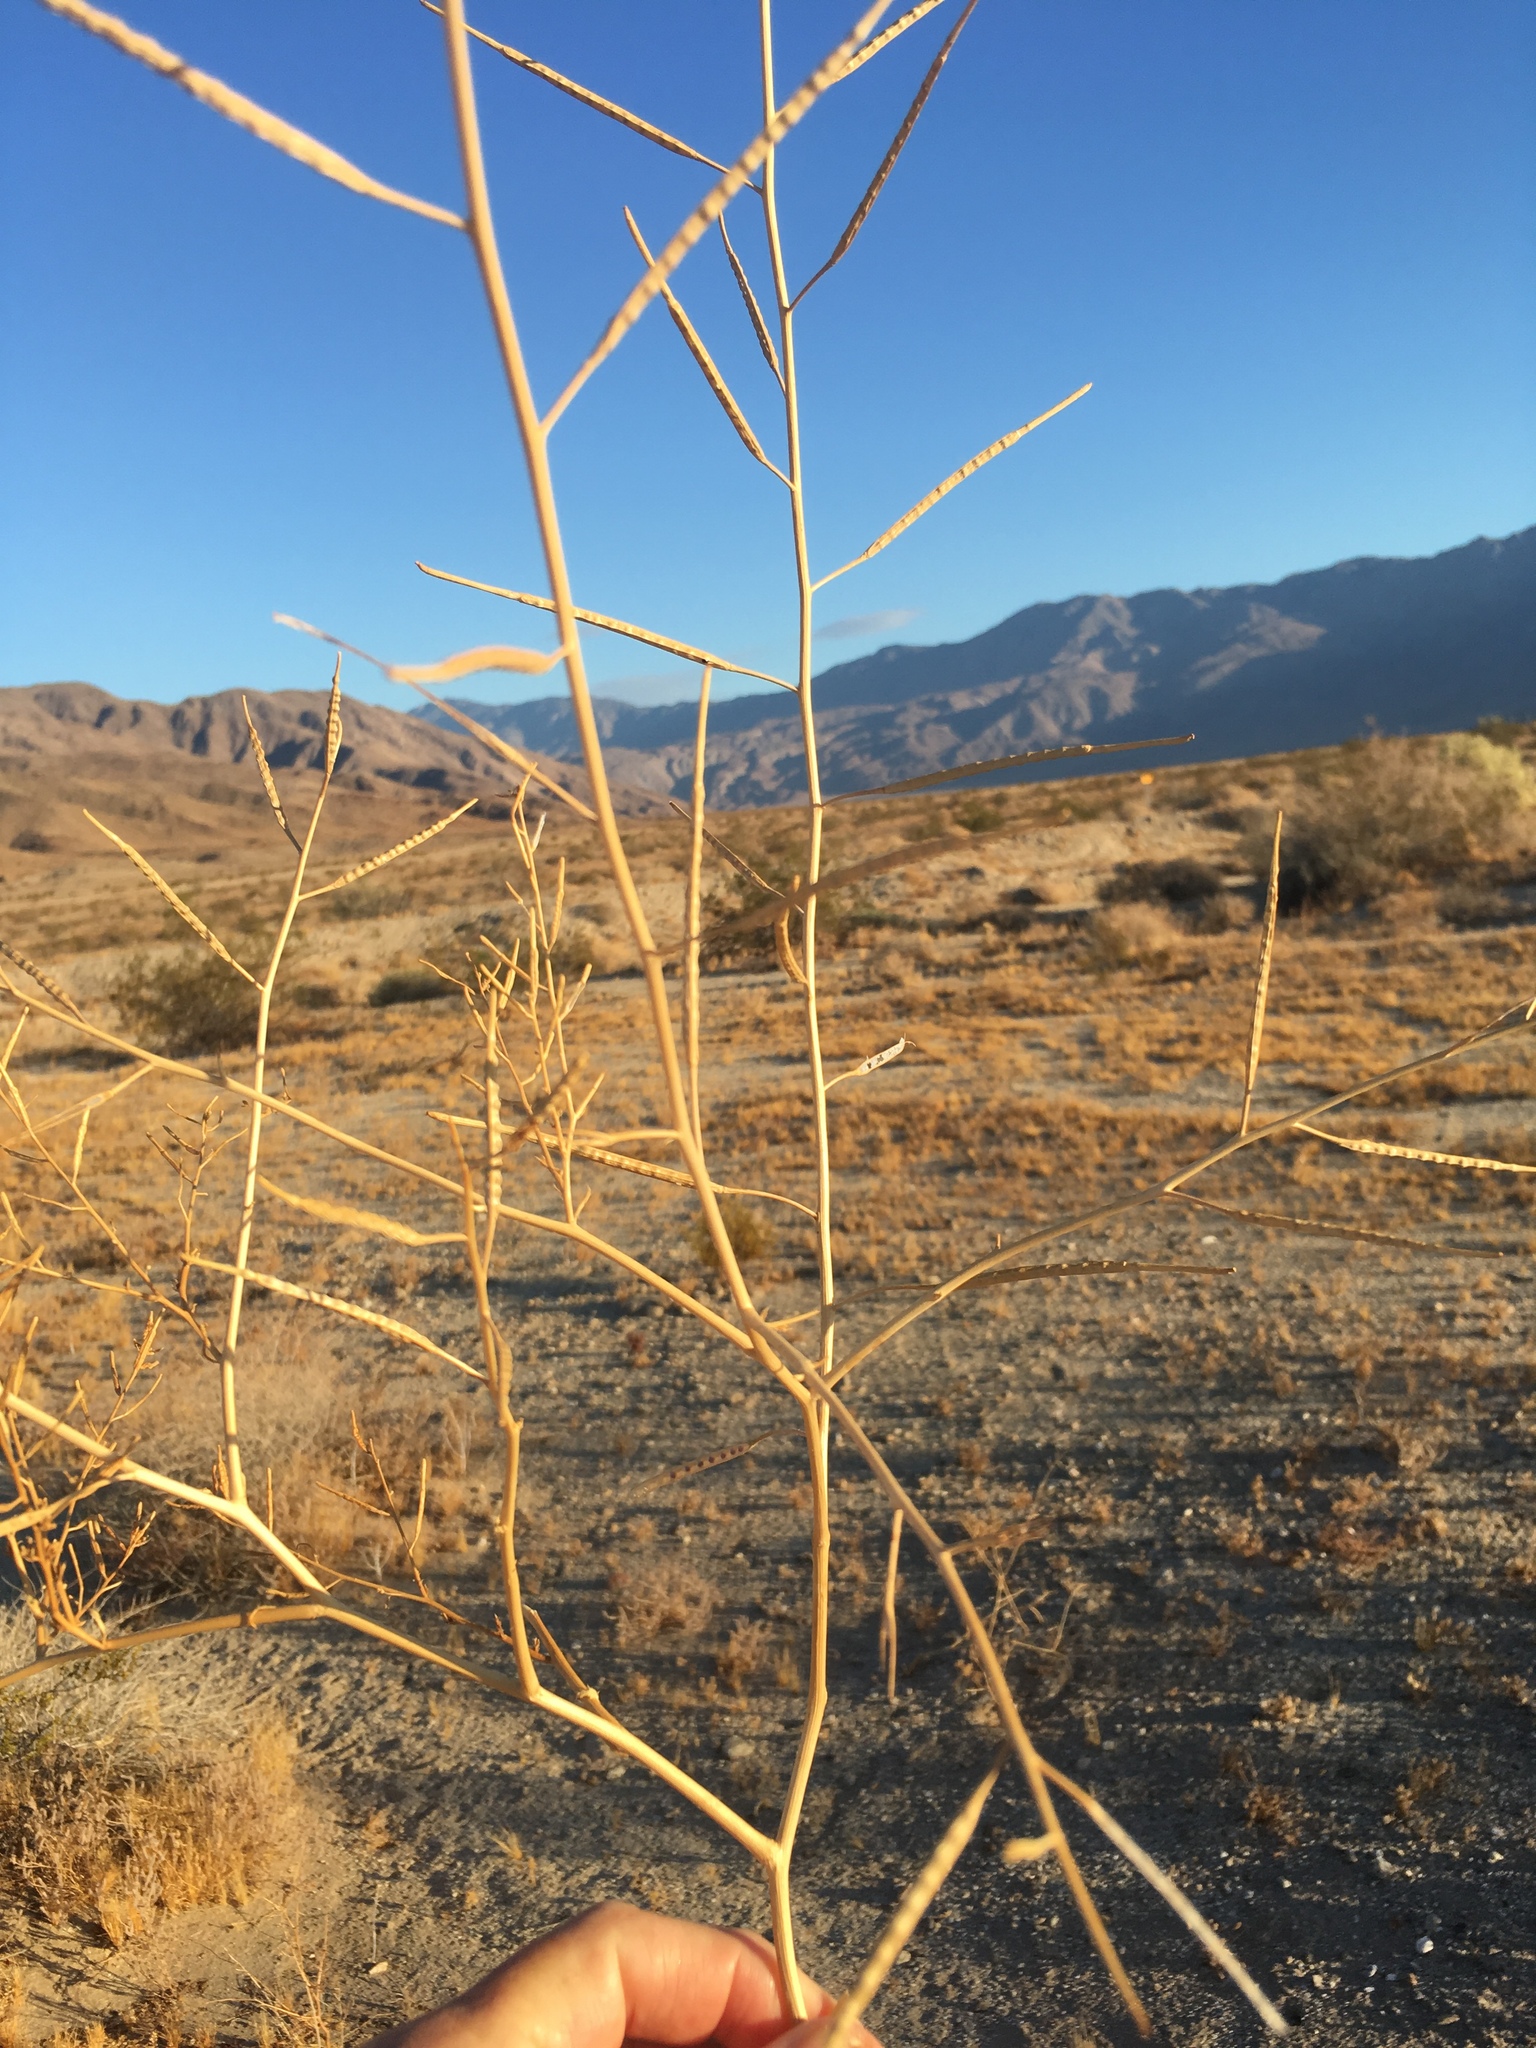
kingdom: Plantae
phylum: Tracheophyta
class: Magnoliopsida
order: Brassicales
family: Brassicaceae
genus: Brassica
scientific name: Brassica tournefortii
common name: Pale cabbage
